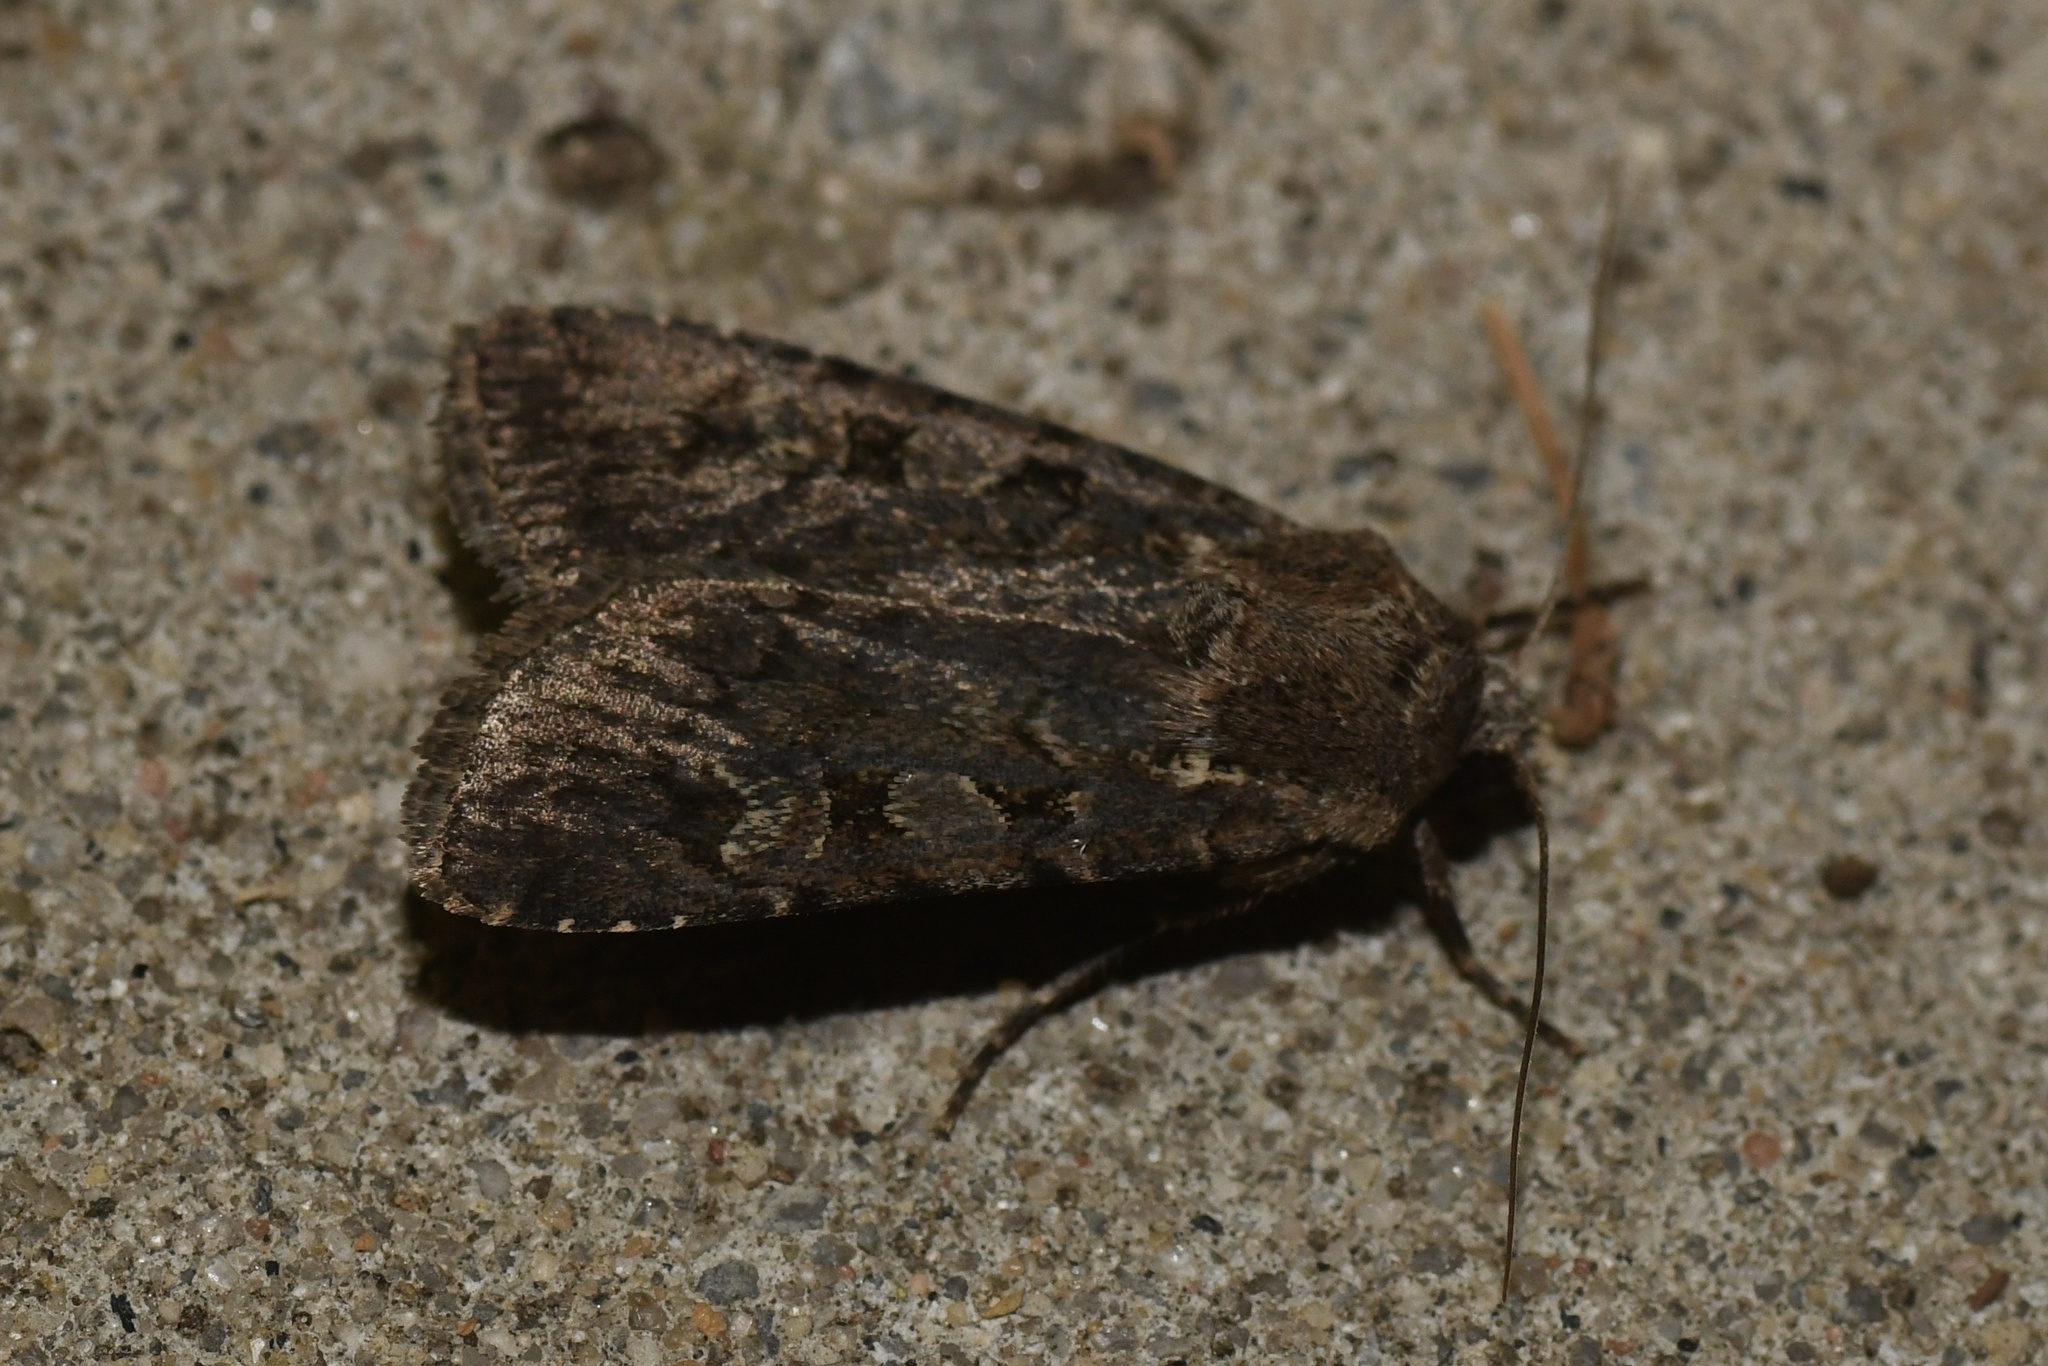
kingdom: Animalia
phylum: Arthropoda
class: Insecta
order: Lepidoptera
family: Noctuidae
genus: Euxoa
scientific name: Euxoa tessellata
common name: Striped cutworm
